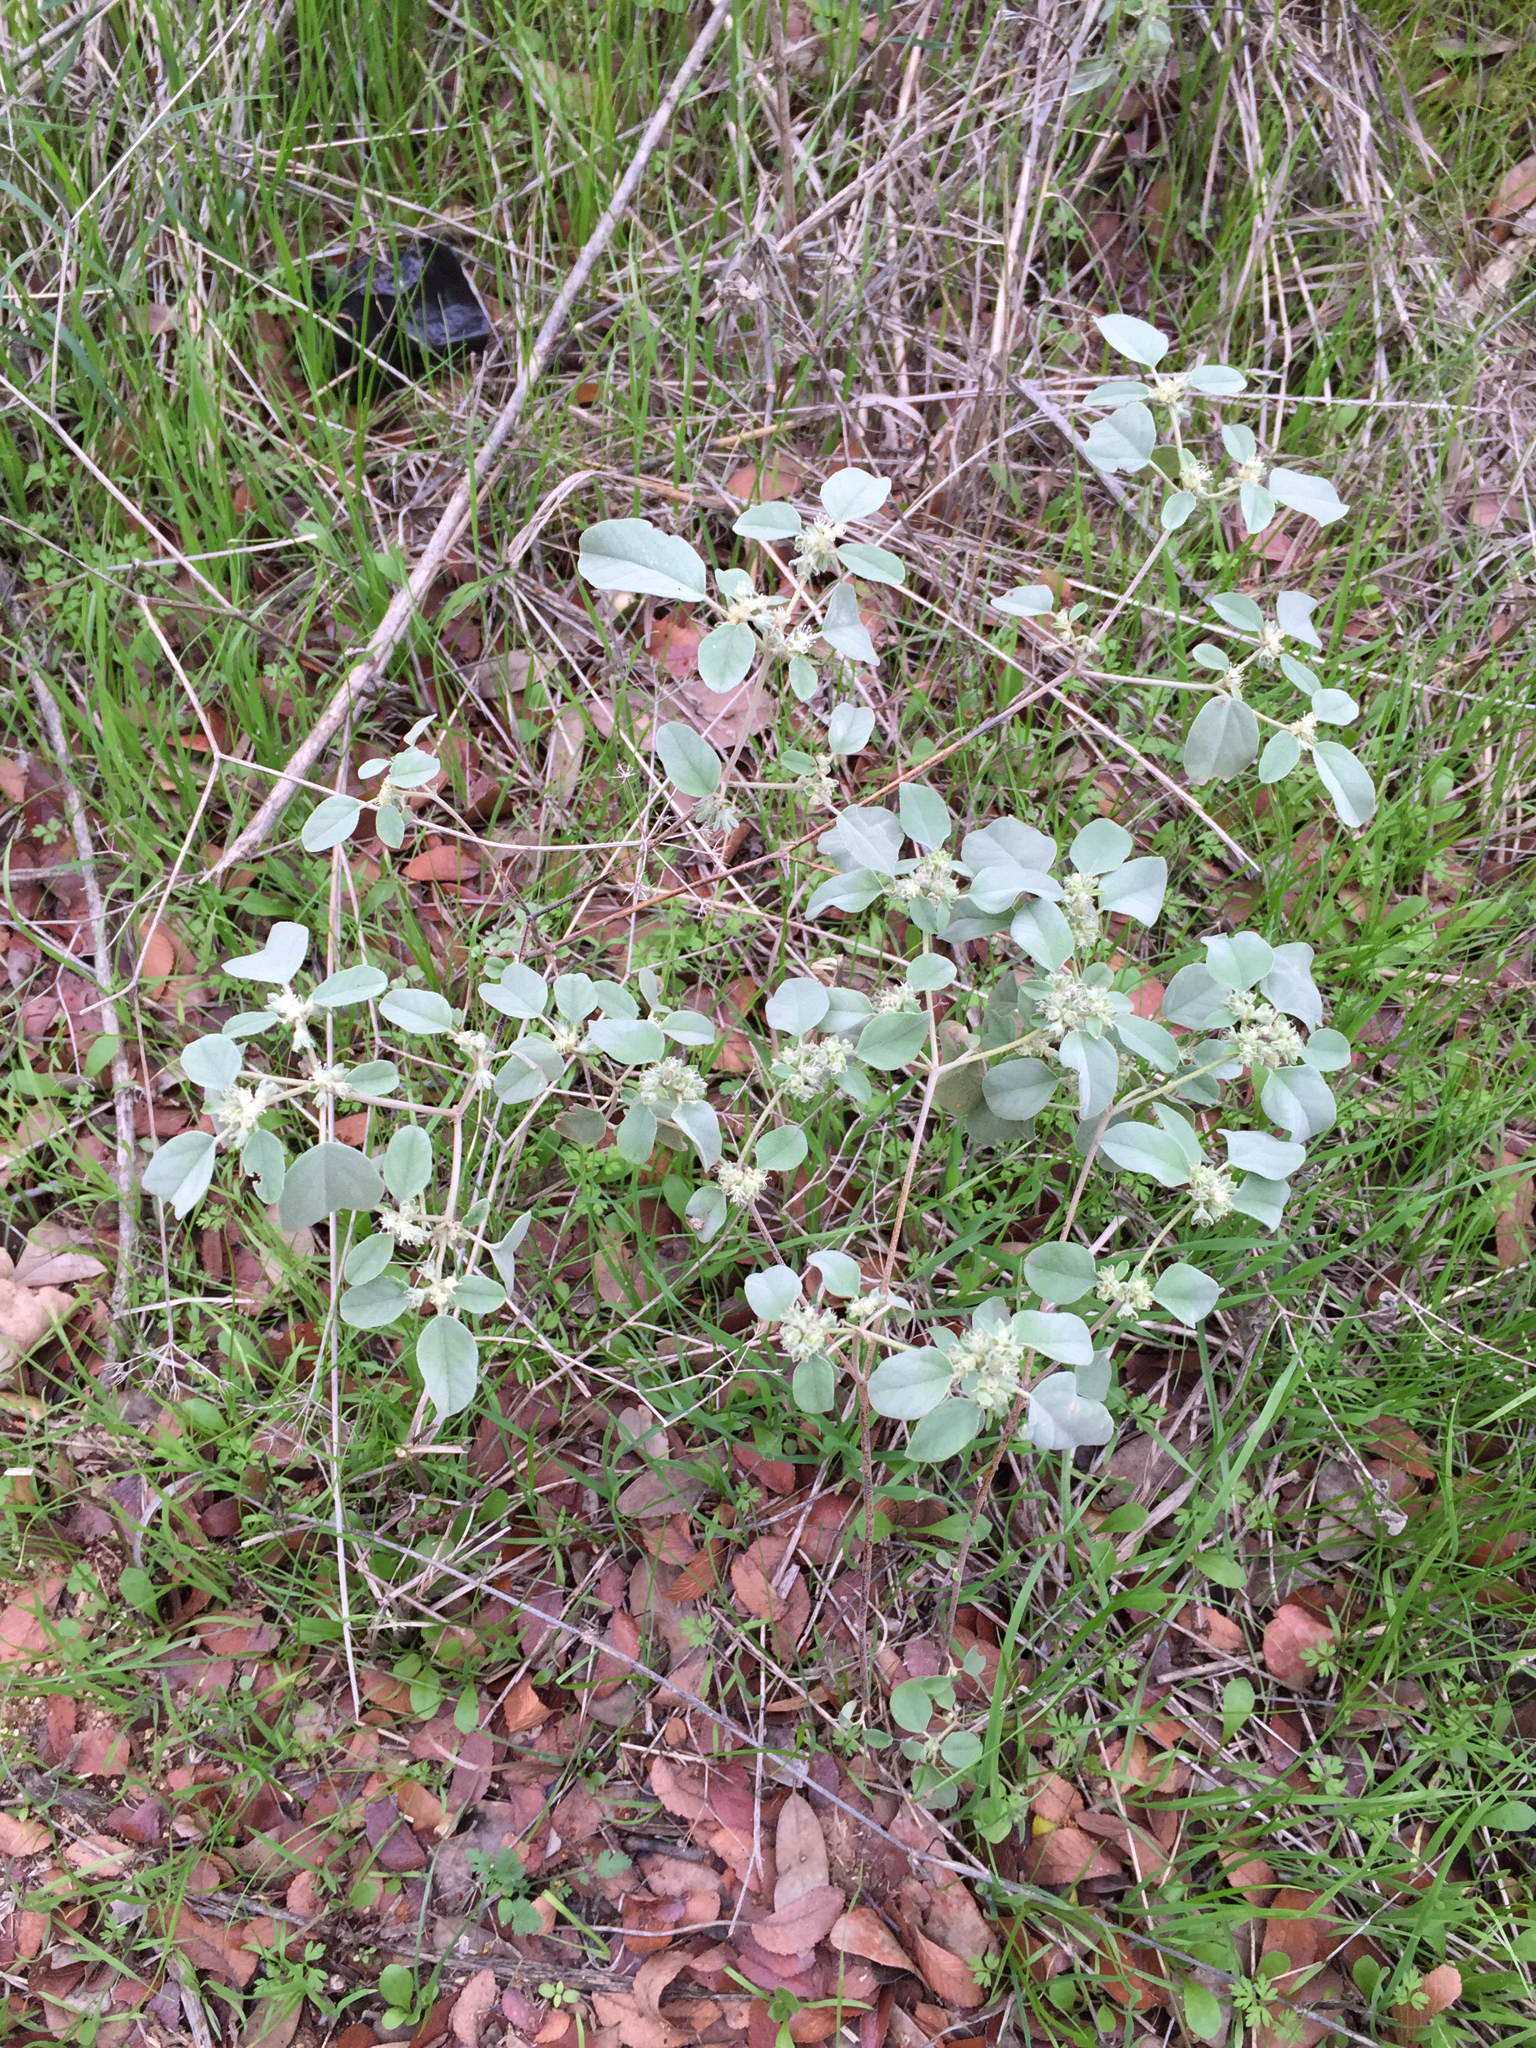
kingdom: Plantae
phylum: Tracheophyta
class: Magnoliopsida
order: Malpighiales
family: Euphorbiaceae
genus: Croton
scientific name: Croton lindheimerianus
